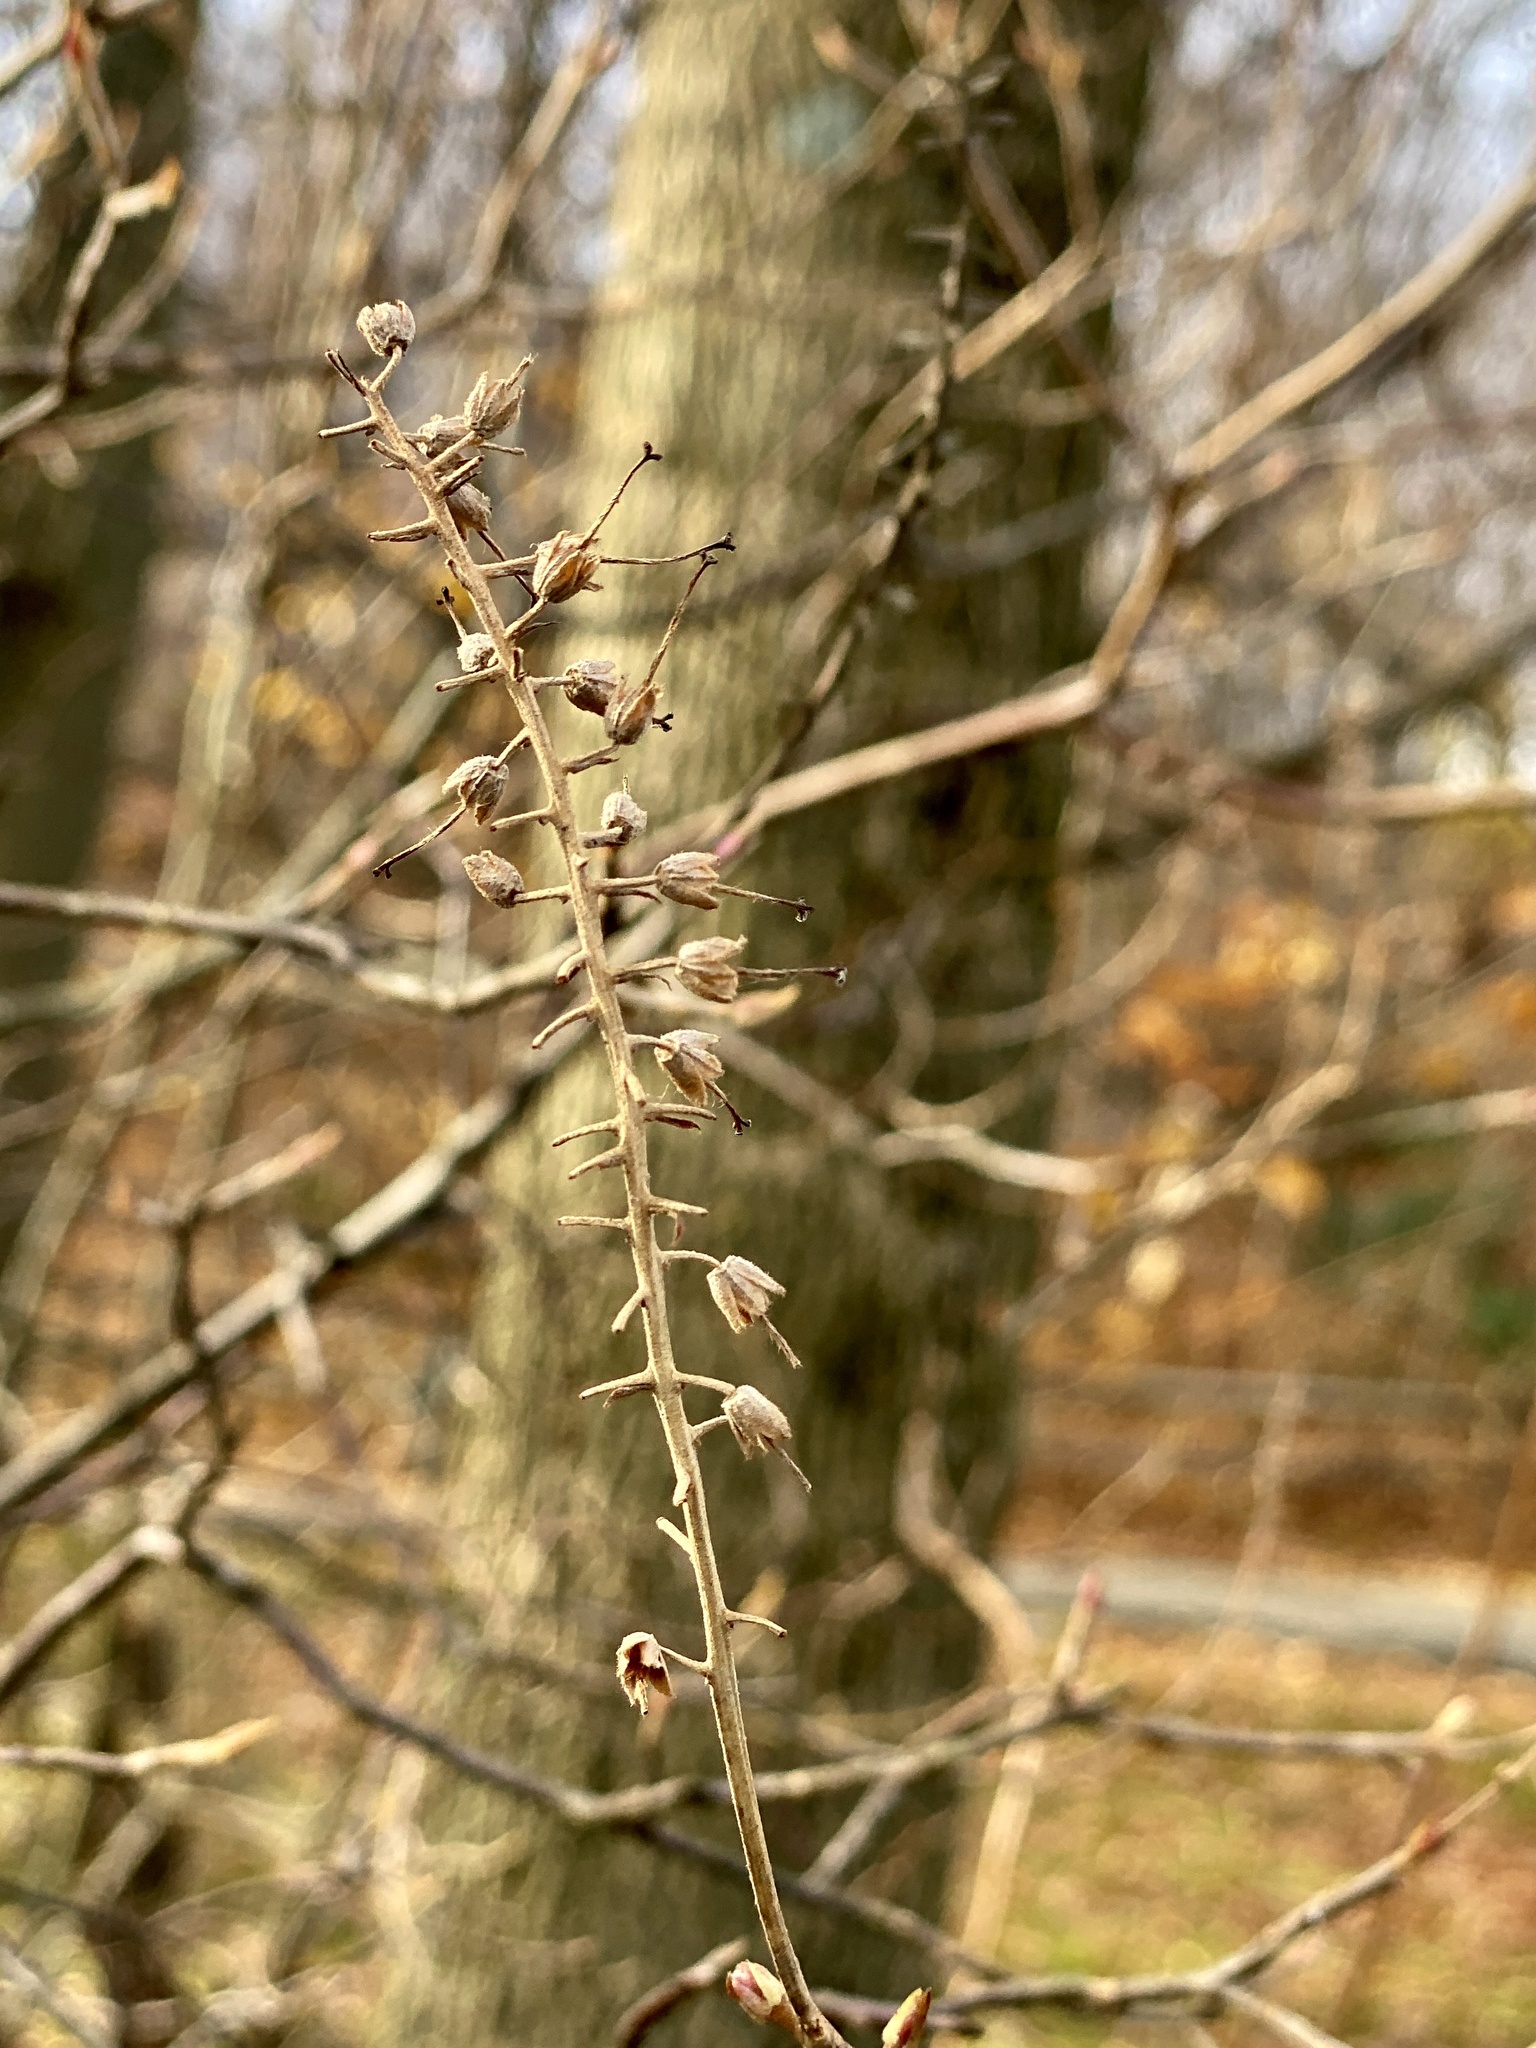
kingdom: Plantae
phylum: Tracheophyta
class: Magnoliopsida
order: Ericales
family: Clethraceae
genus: Clethra
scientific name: Clethra alnifolia
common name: Sweet pepperbush
